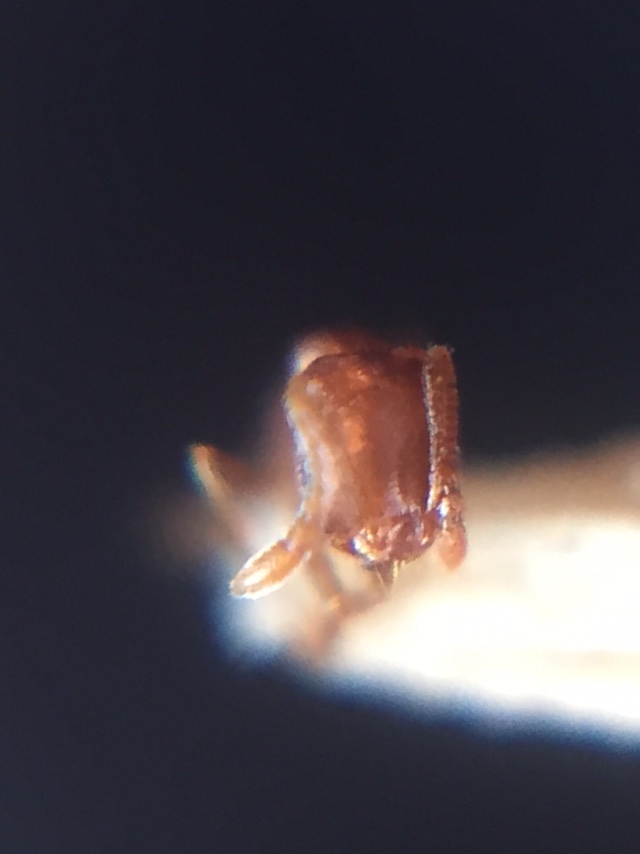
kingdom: Animalia
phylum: Arthropoda
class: Insecta
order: Hymenoptera
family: Formicidae
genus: Monomorium
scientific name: Monomorium sahlbergi
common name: Ant
